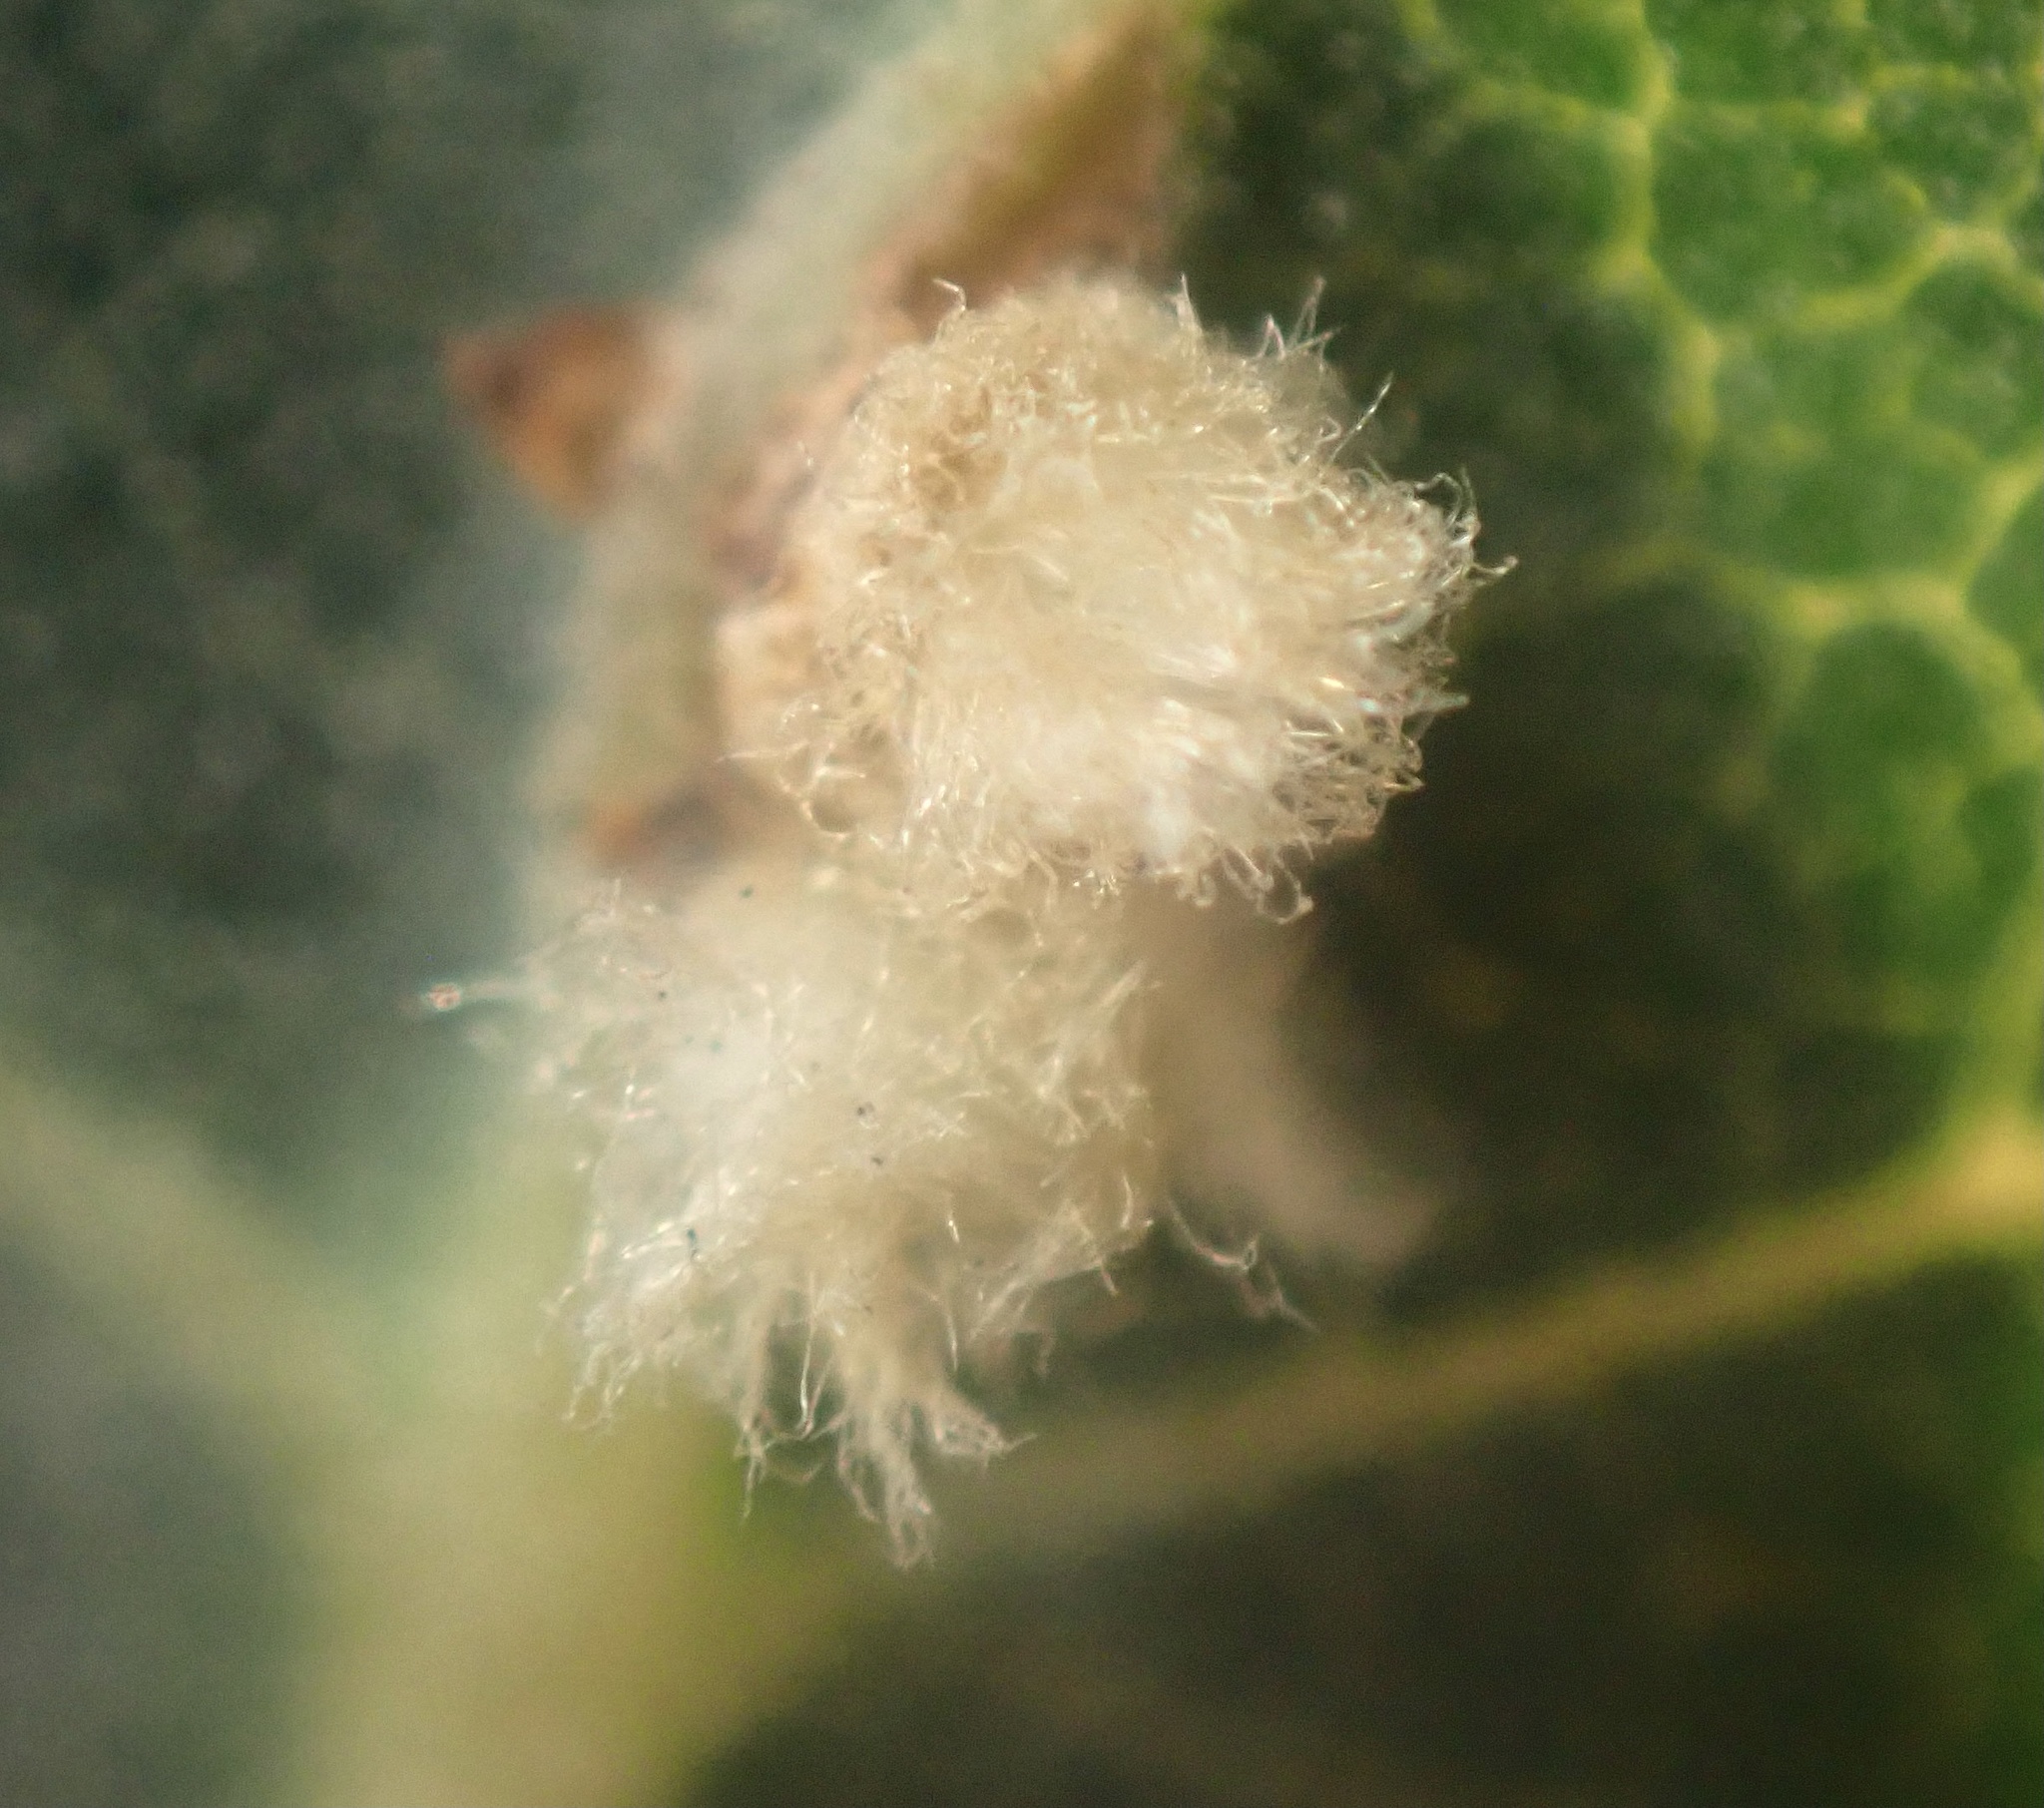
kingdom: Animalia
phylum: Arthropoda
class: Insecta
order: Hymenoptera
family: Cynipidae
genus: Andricus
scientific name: Andricus Druon fullawayi
